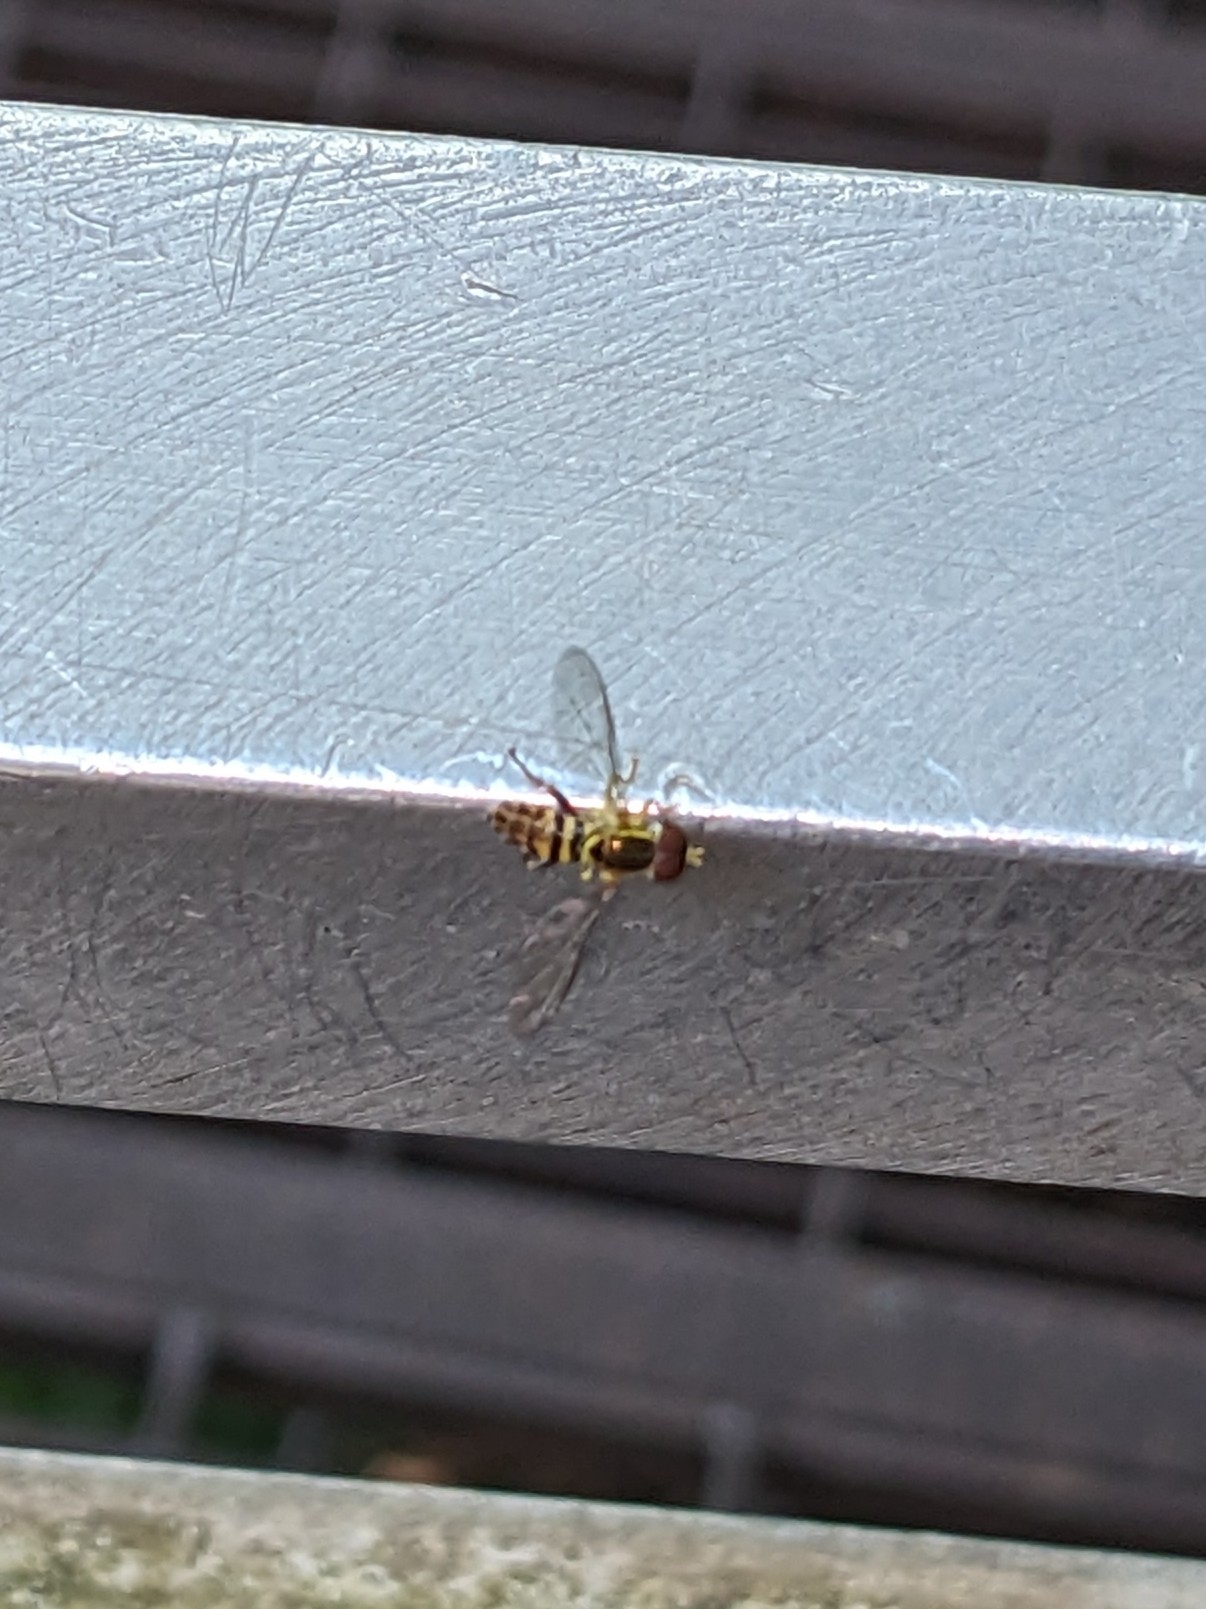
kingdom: Animalia
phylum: Arthropoda
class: Insecta
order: Diptera
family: Syrphidae
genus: Toxomerus
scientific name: Toxomerus geminatus
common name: Eastern calligrapher
